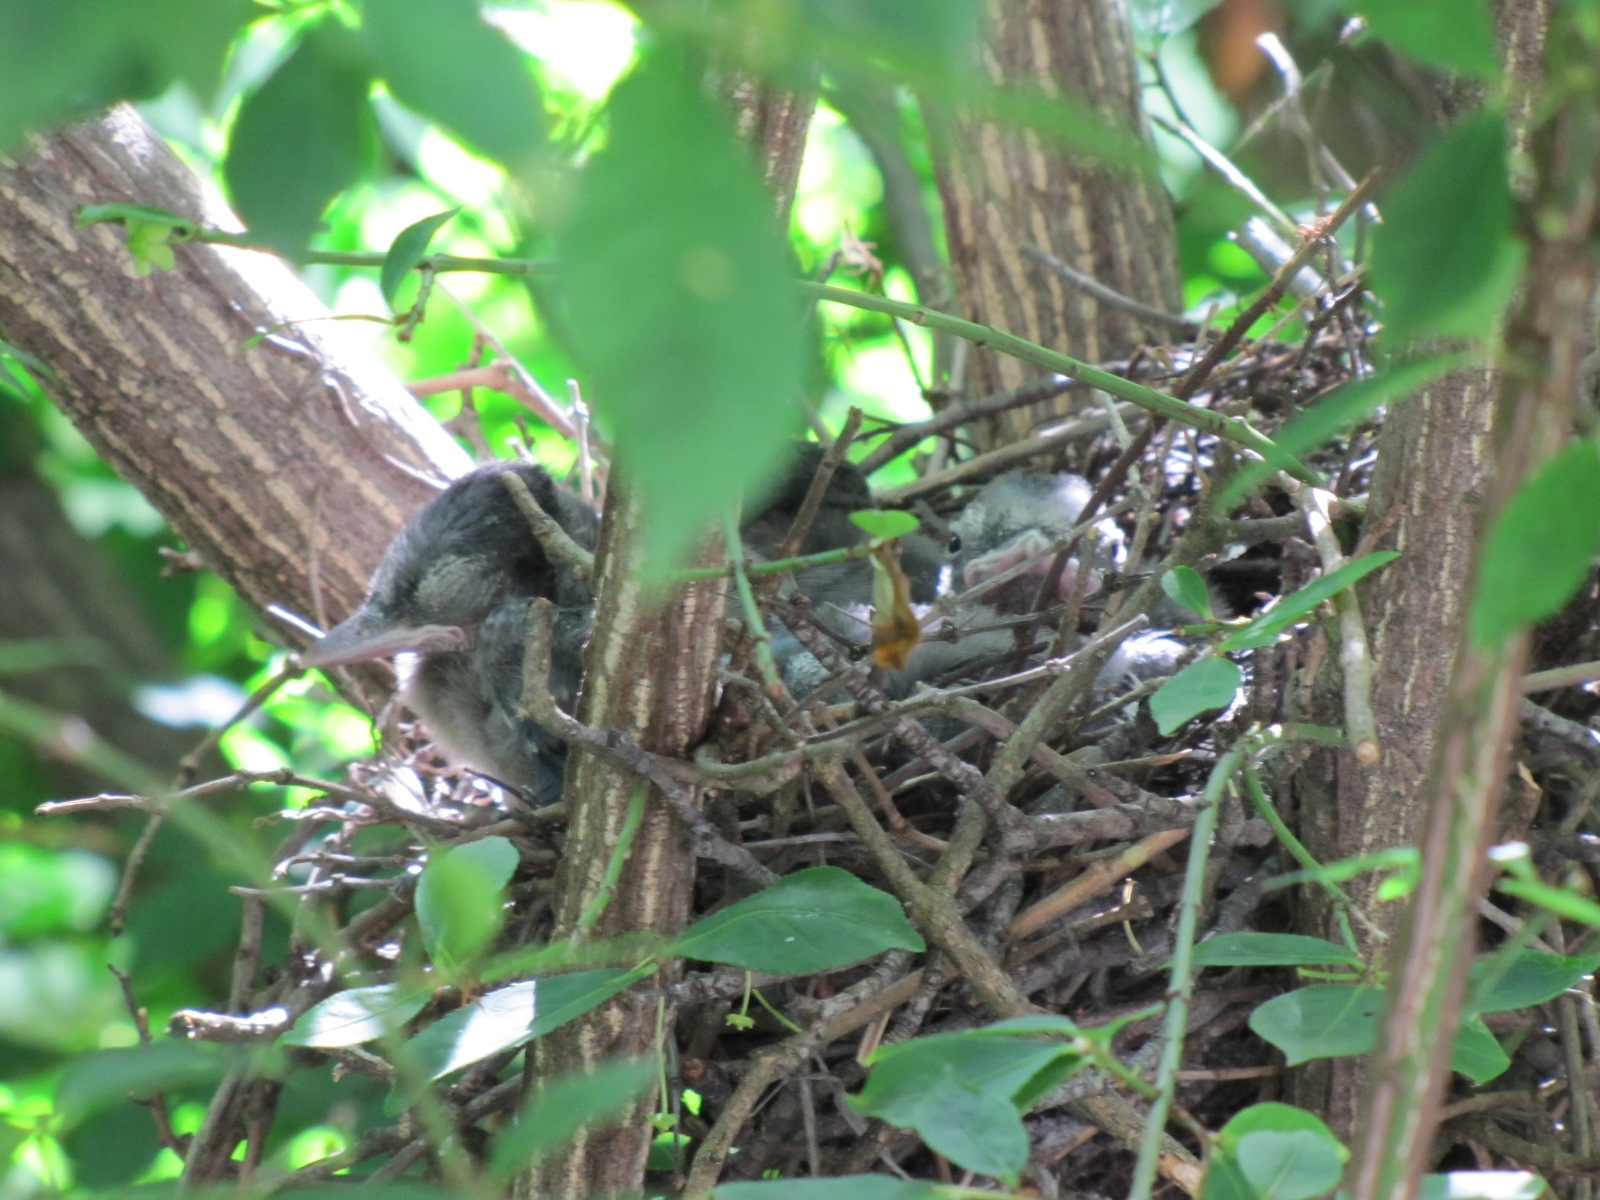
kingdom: Animalia
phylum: Chordata
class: Aves
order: Passeriformes
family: Corvidae
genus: Cyanocitta
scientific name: Cyanocitta cristata
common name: Blue jay
